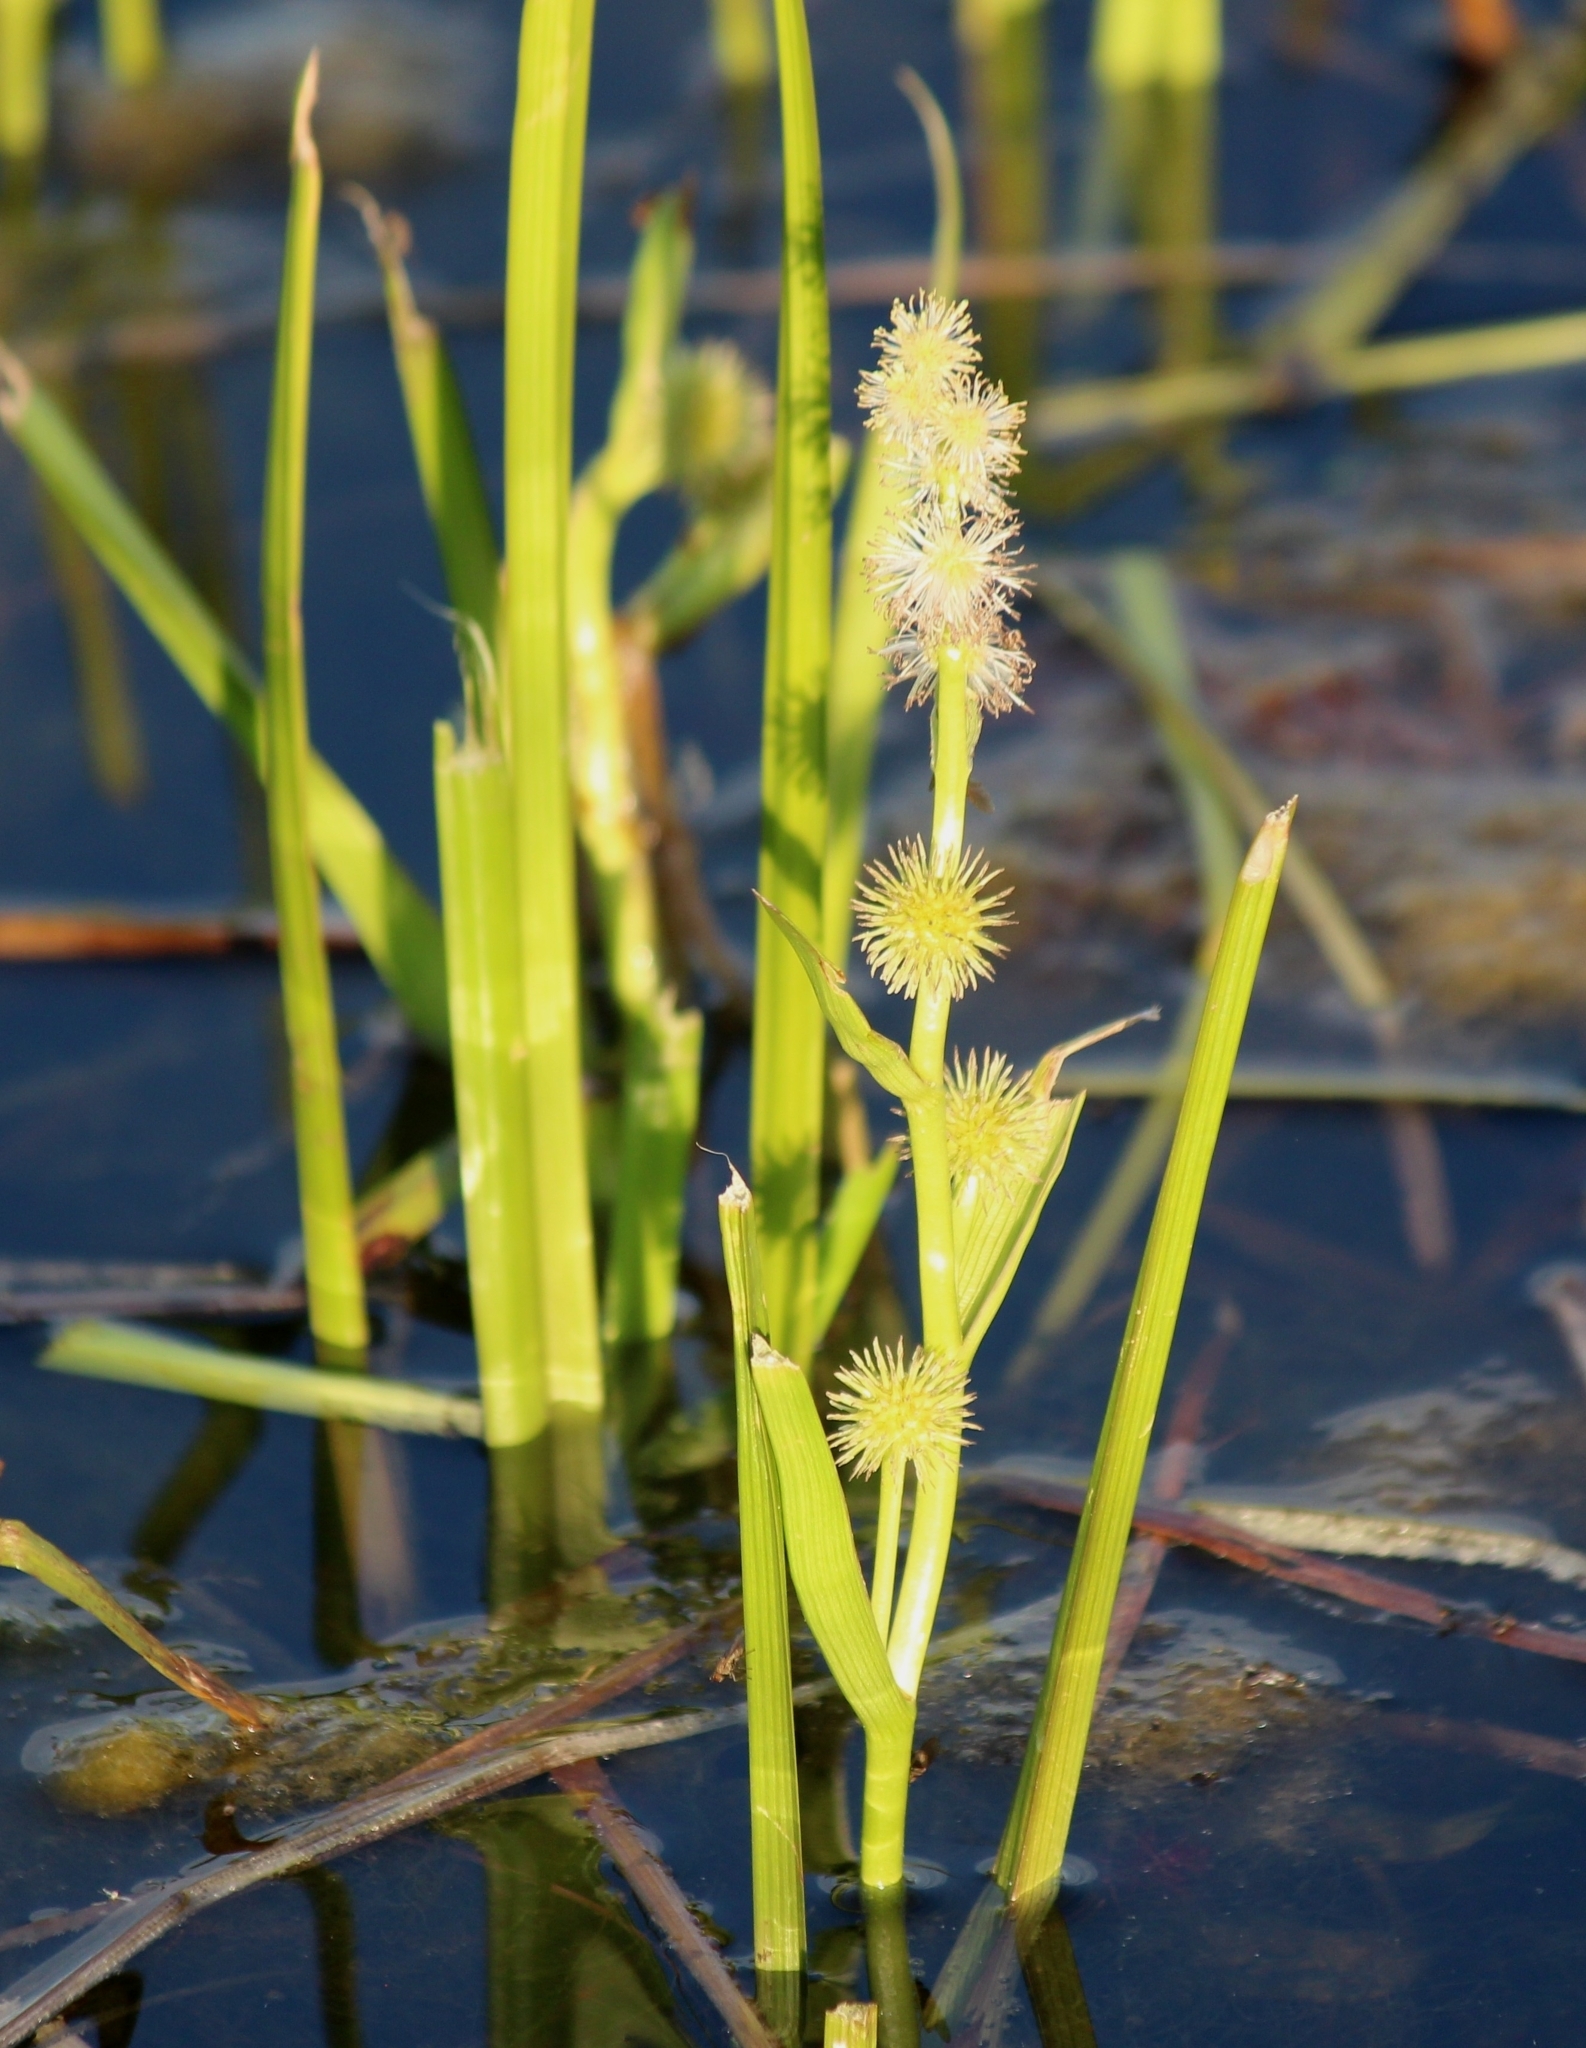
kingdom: Plantae
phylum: Tracheophyta
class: Liliopsida
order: Poales
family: Typhaceae
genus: Sparganium
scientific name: Sparganium emersum
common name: Unbranched bur-reed
